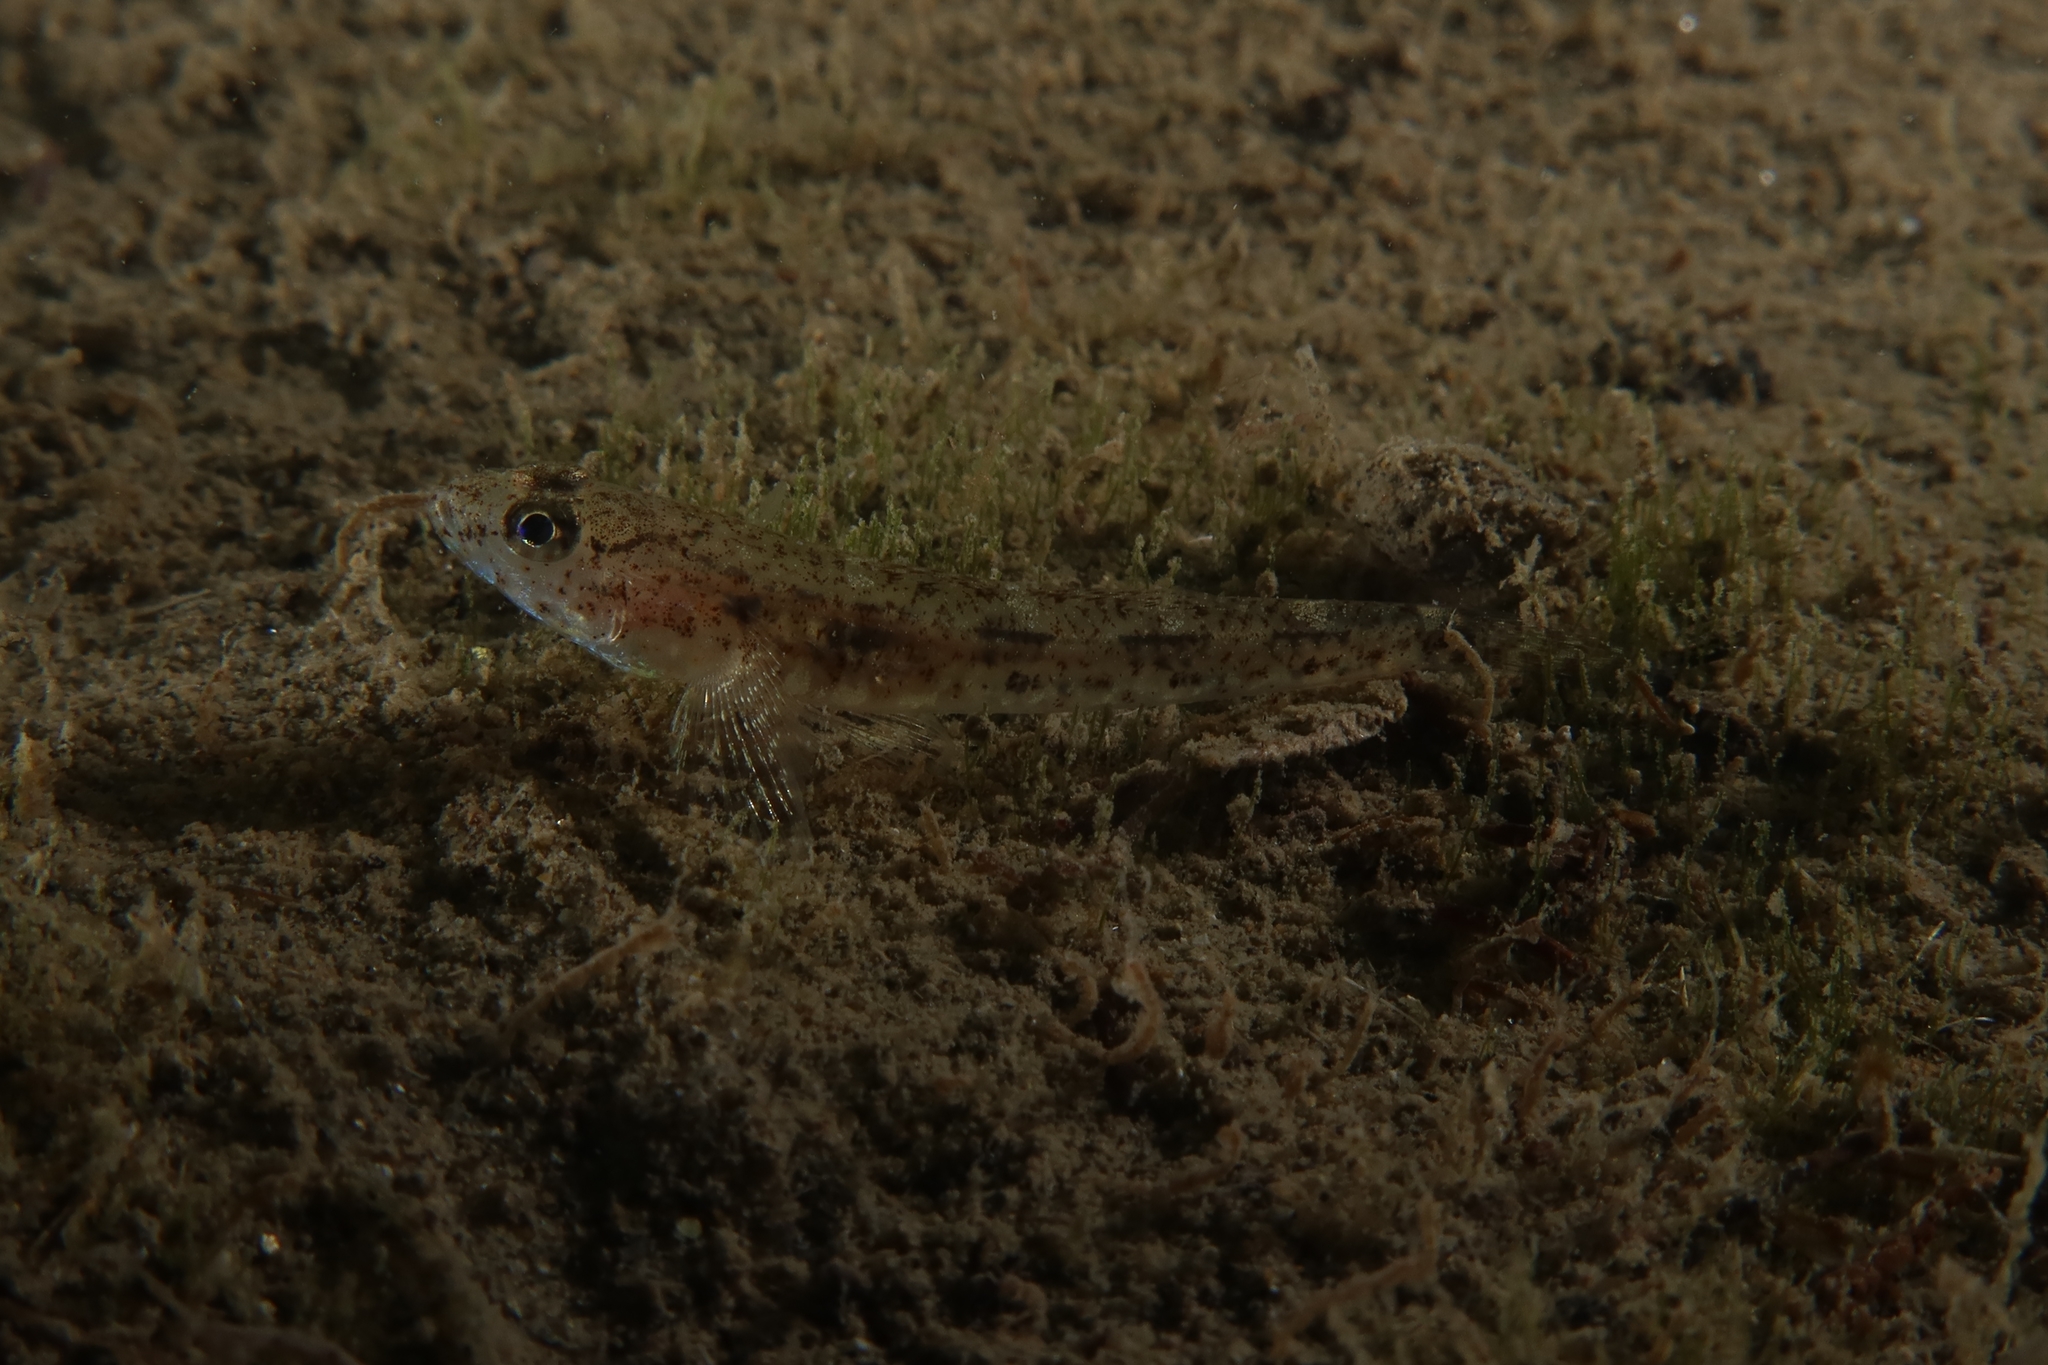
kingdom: Animalia
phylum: Chordata
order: Perciformes
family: Gobiidae
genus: Pomatoschistus
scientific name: Pomatoschistus marmoratus
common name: Marbled goby
